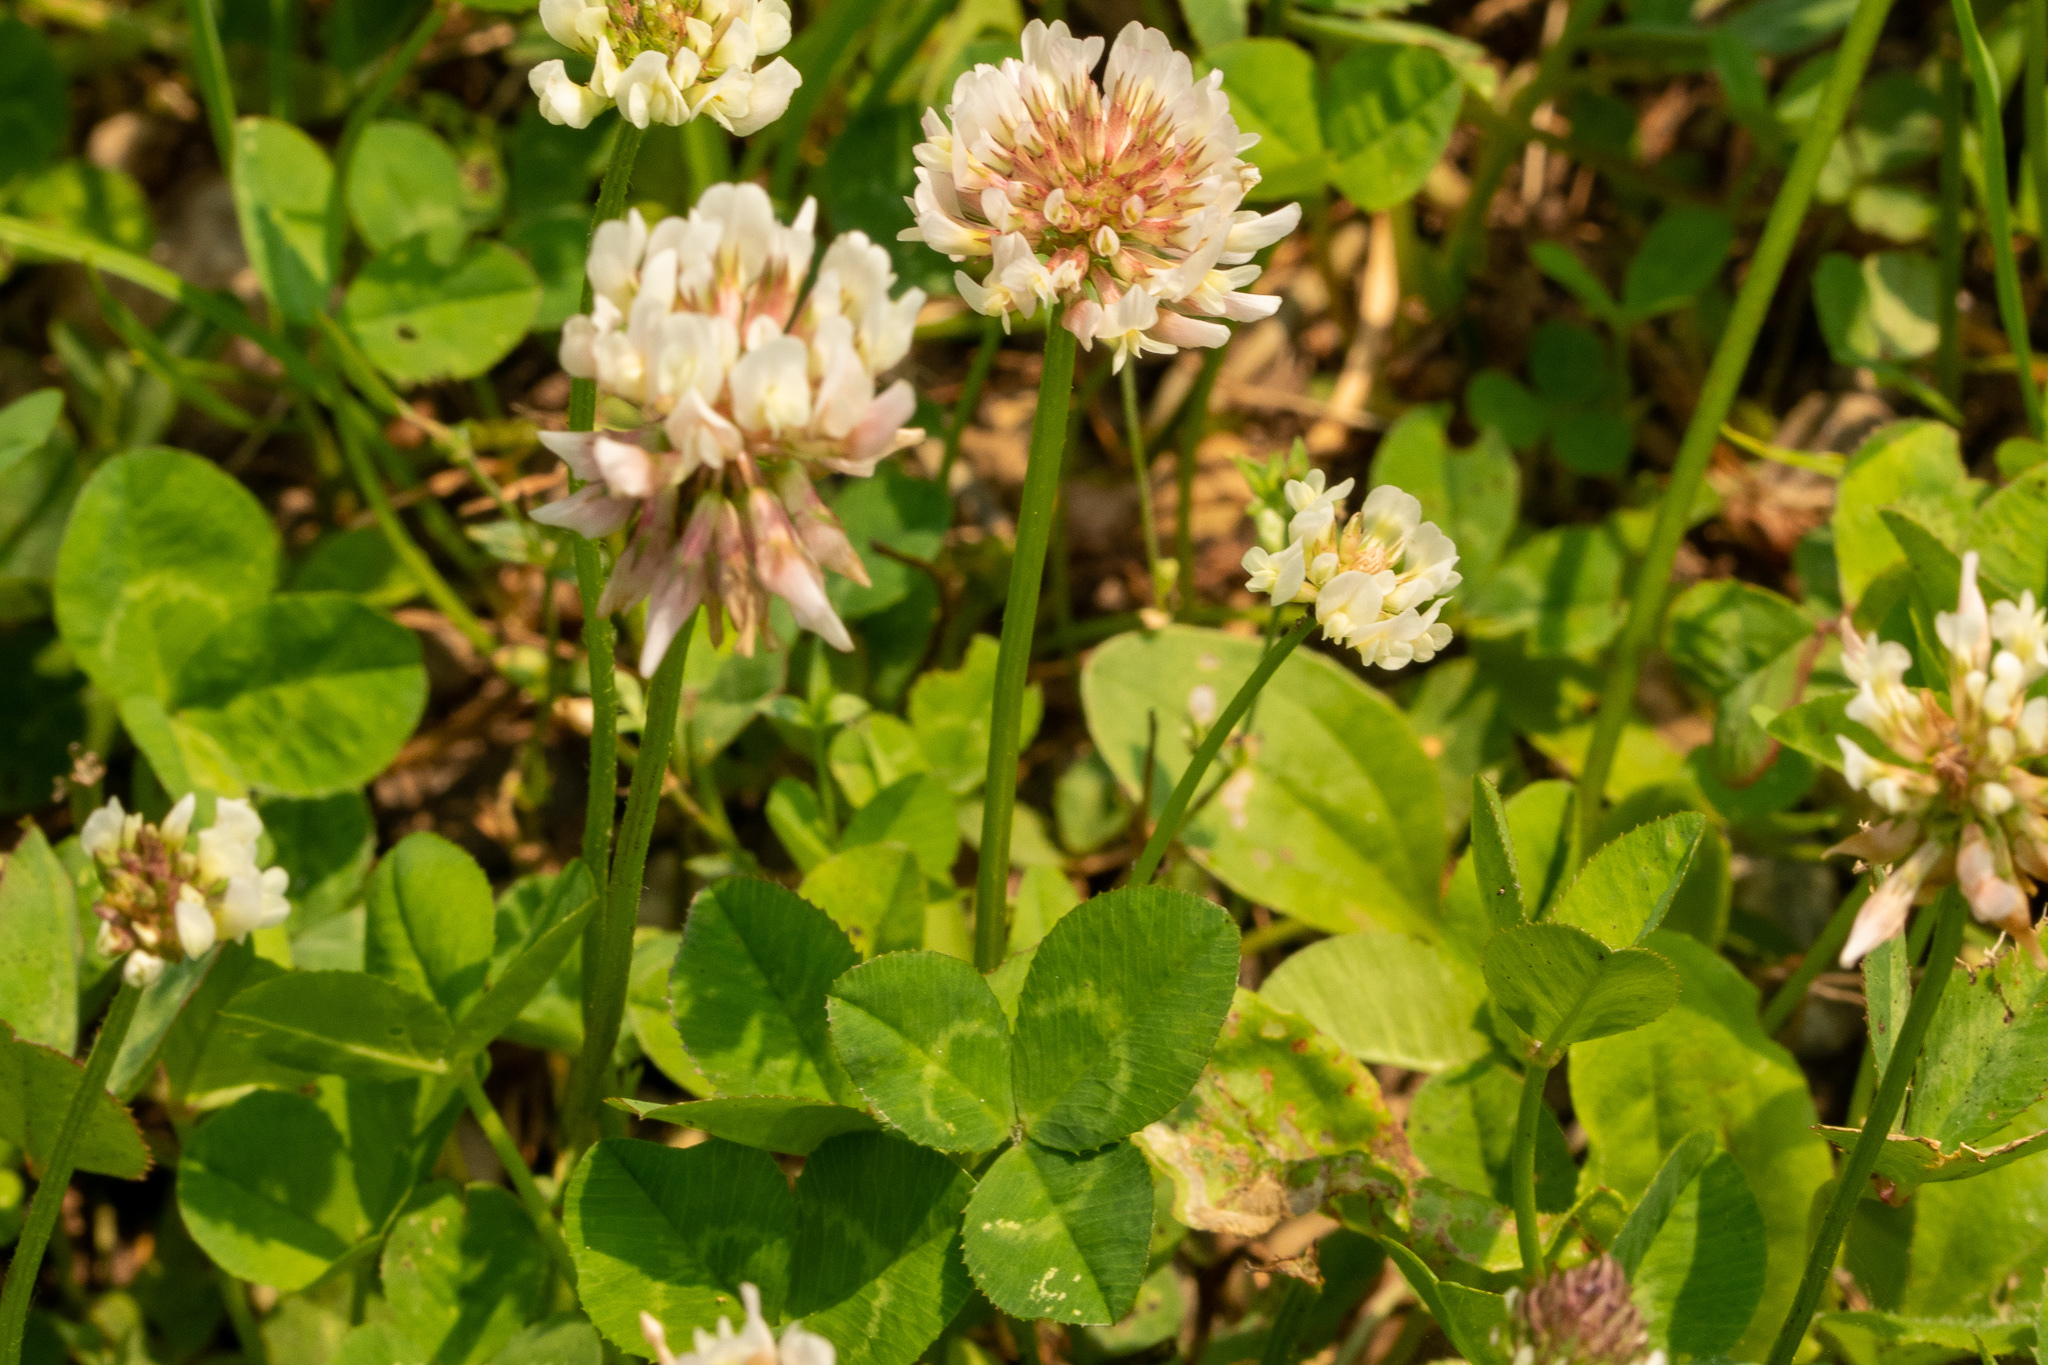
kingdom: Plantae
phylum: Tracheophyta
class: Magnoliopsida
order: Fabales
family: Fabaceae
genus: Trifolium
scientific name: Trifolium repens
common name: White clover
